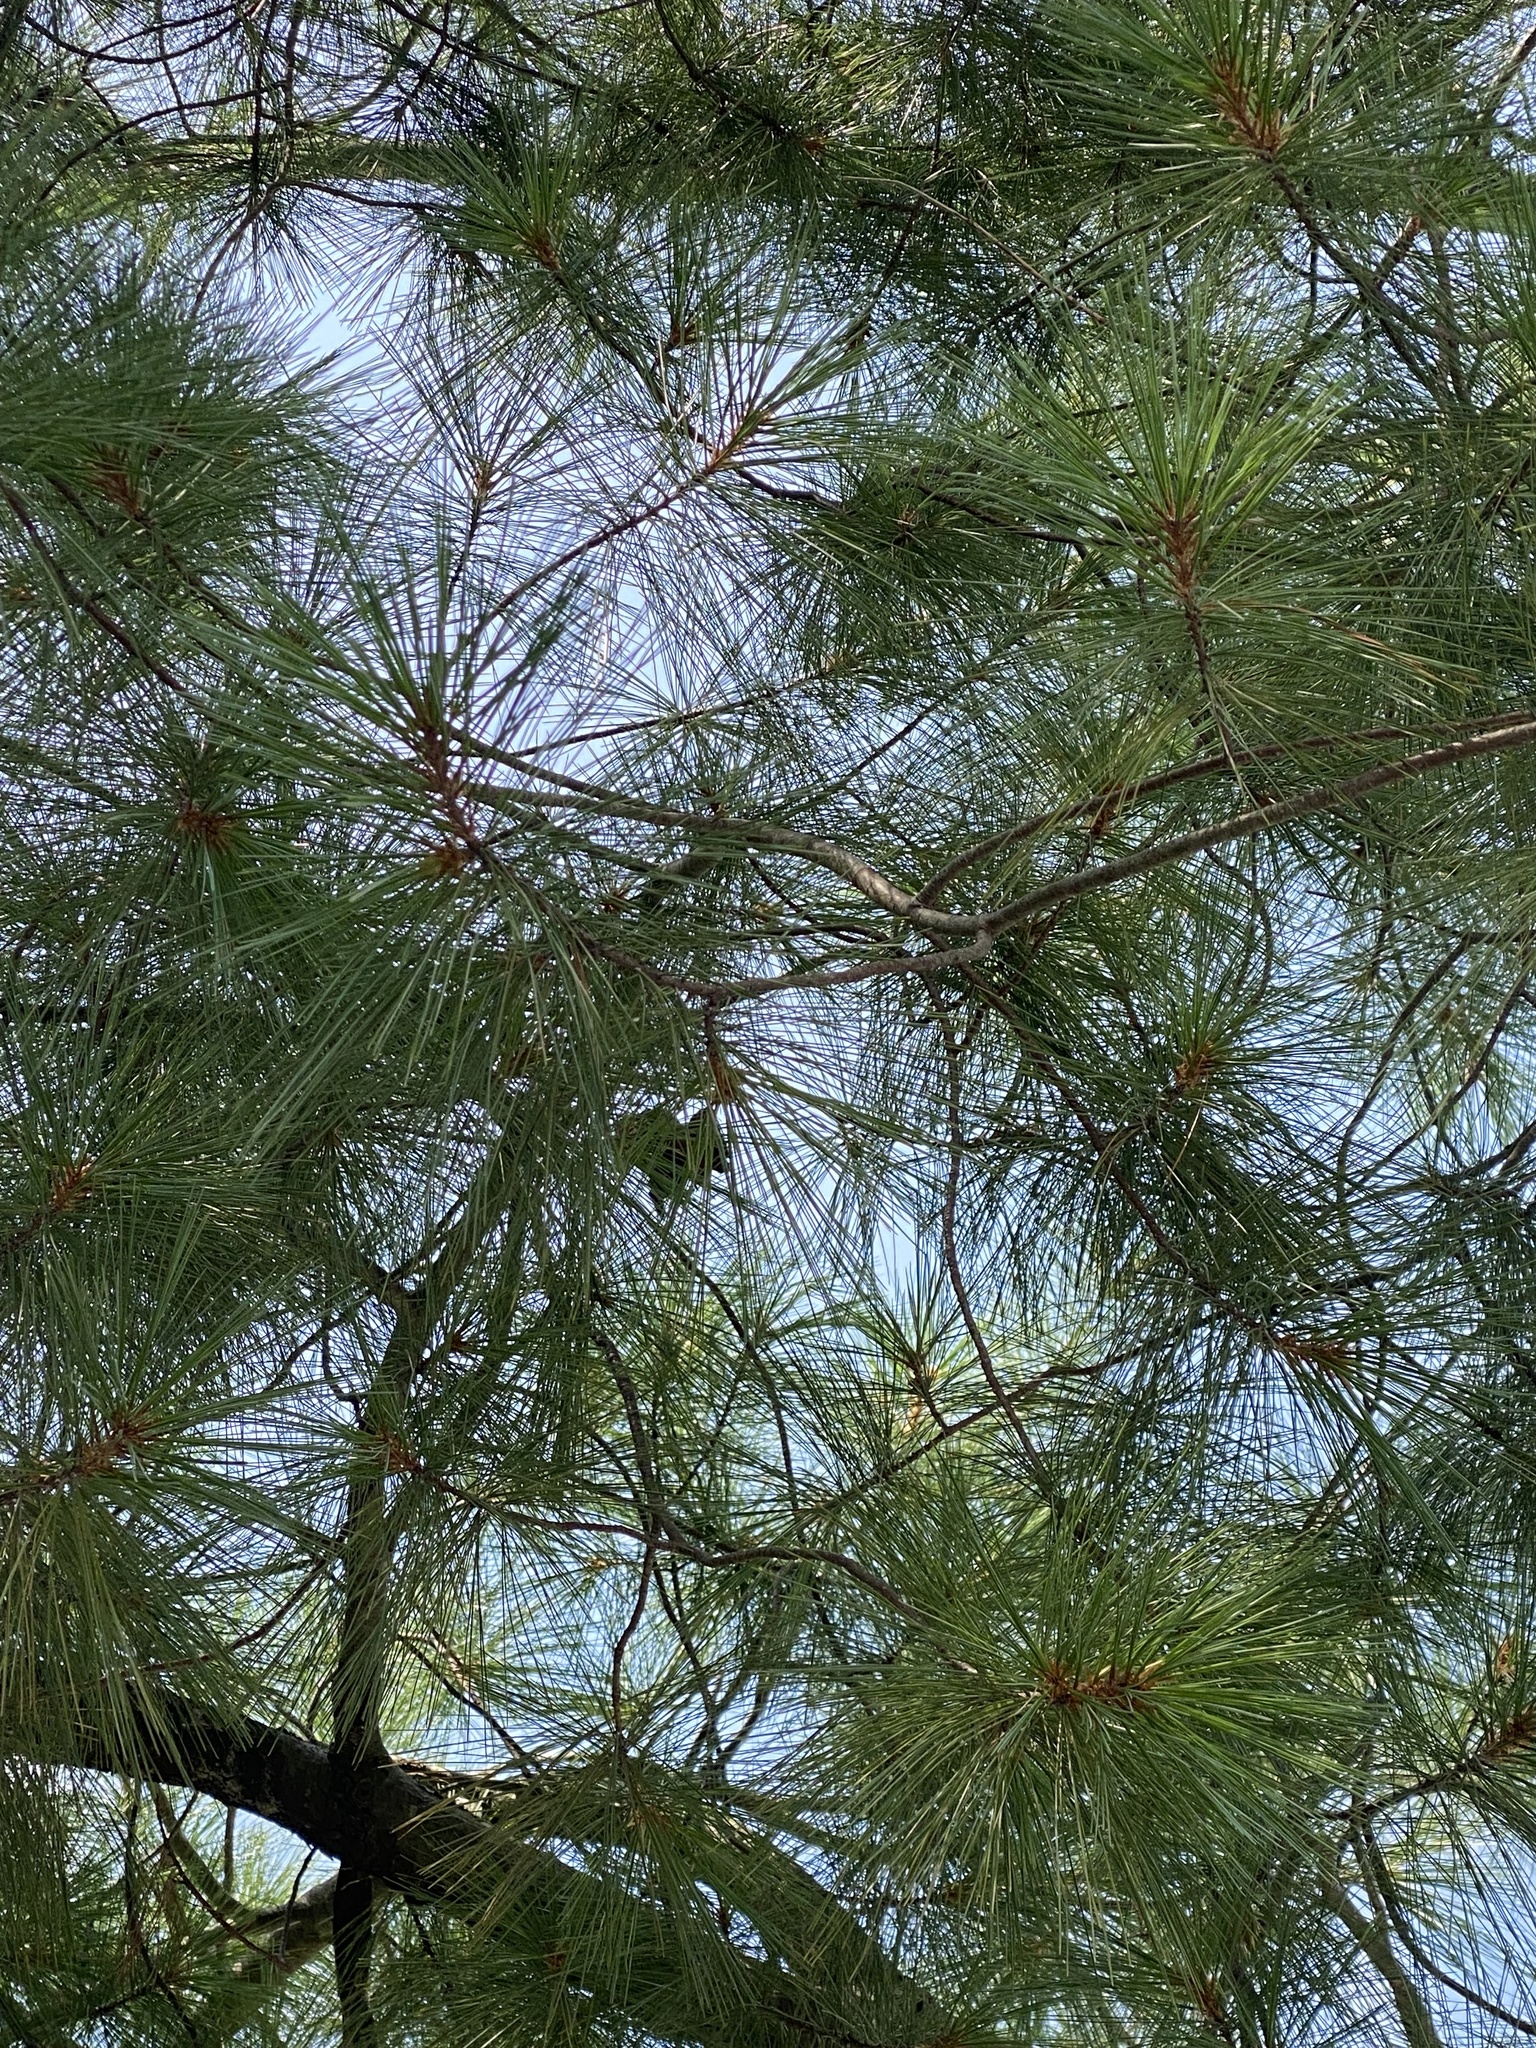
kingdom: Plantae
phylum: Tracheophyta
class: Pinopsida
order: Pinales
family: Pinaceae
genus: Pinus
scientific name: Pinus strobus
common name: Weymouth pine
